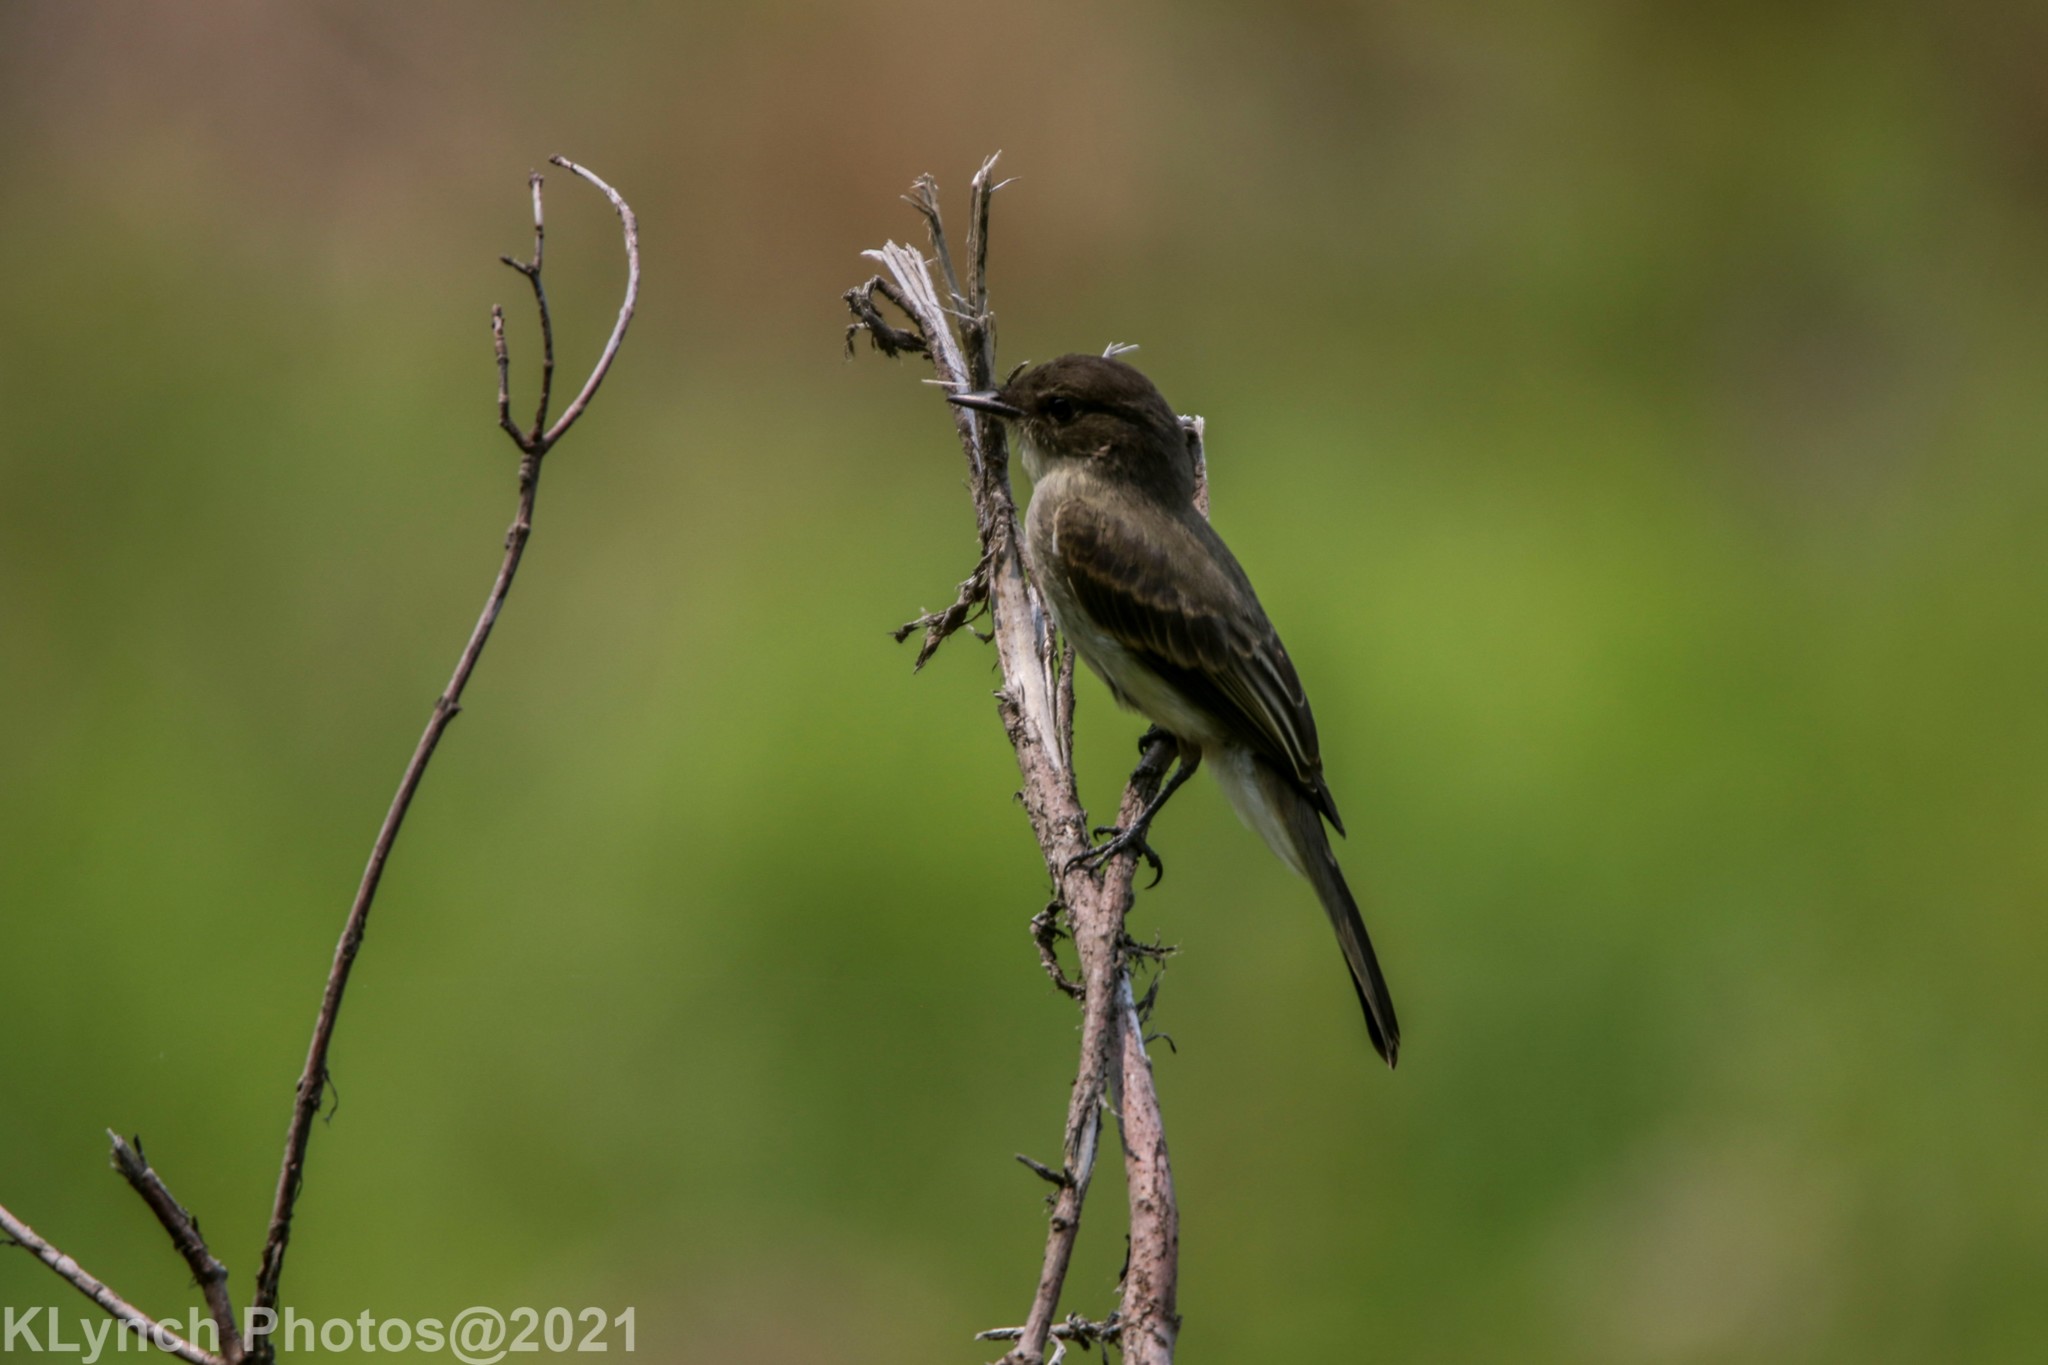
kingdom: Animalia
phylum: Chordata
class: Aves
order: Passeriformes
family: Tyrannidae
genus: Sayornis
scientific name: Sayornis phoebe
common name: Eastern phoebe
